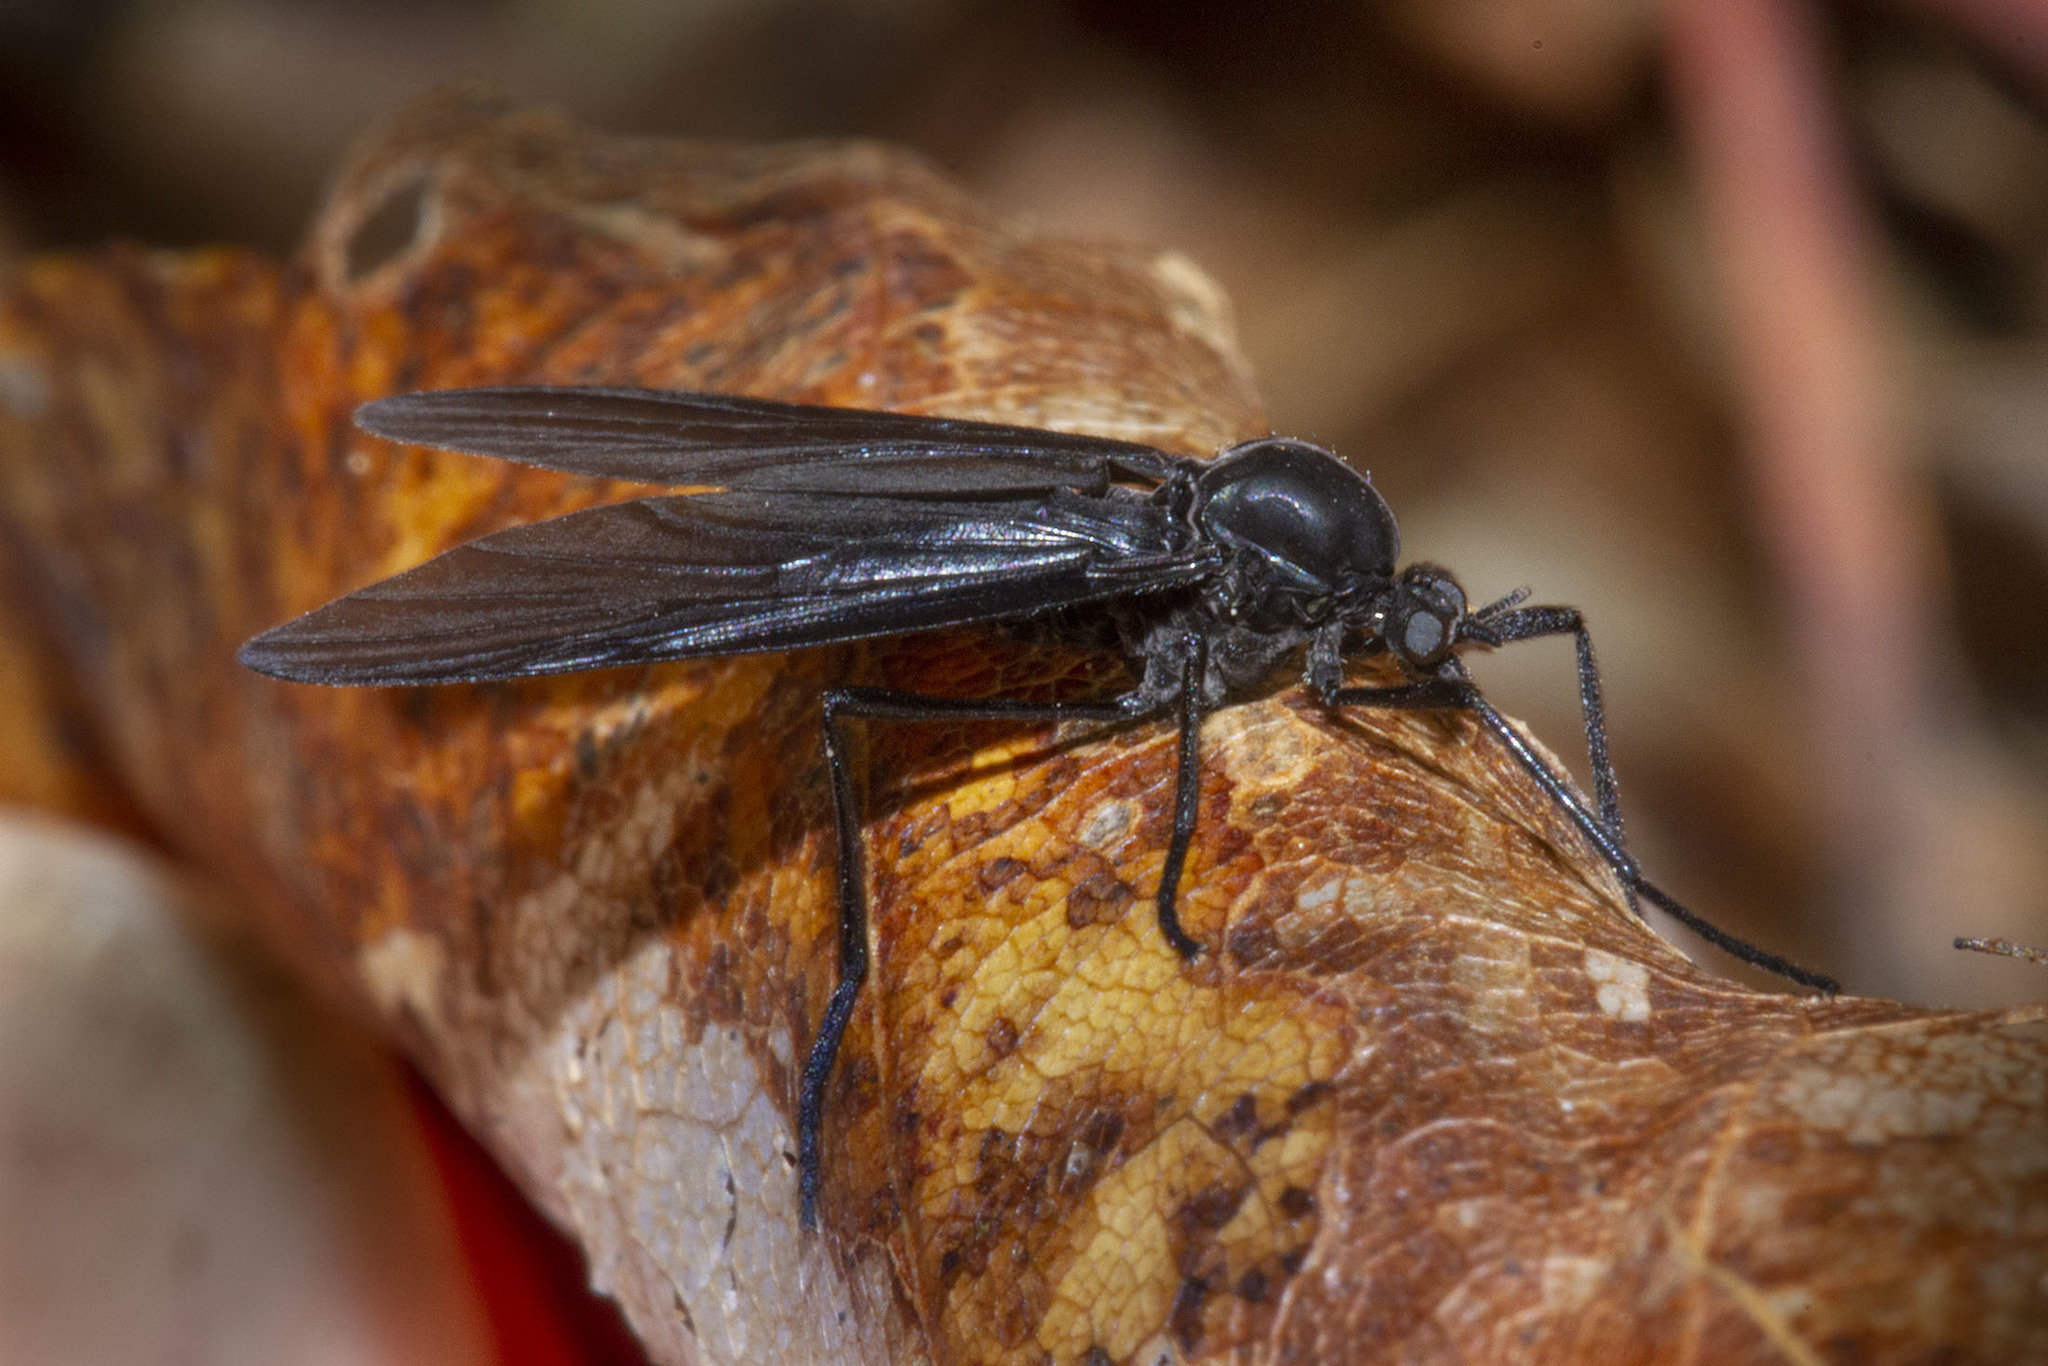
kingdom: Animalia
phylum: Arthropoda
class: Insecta
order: Diptera
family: Bibionidae
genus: Penthetria
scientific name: Penthetria heteroptera
